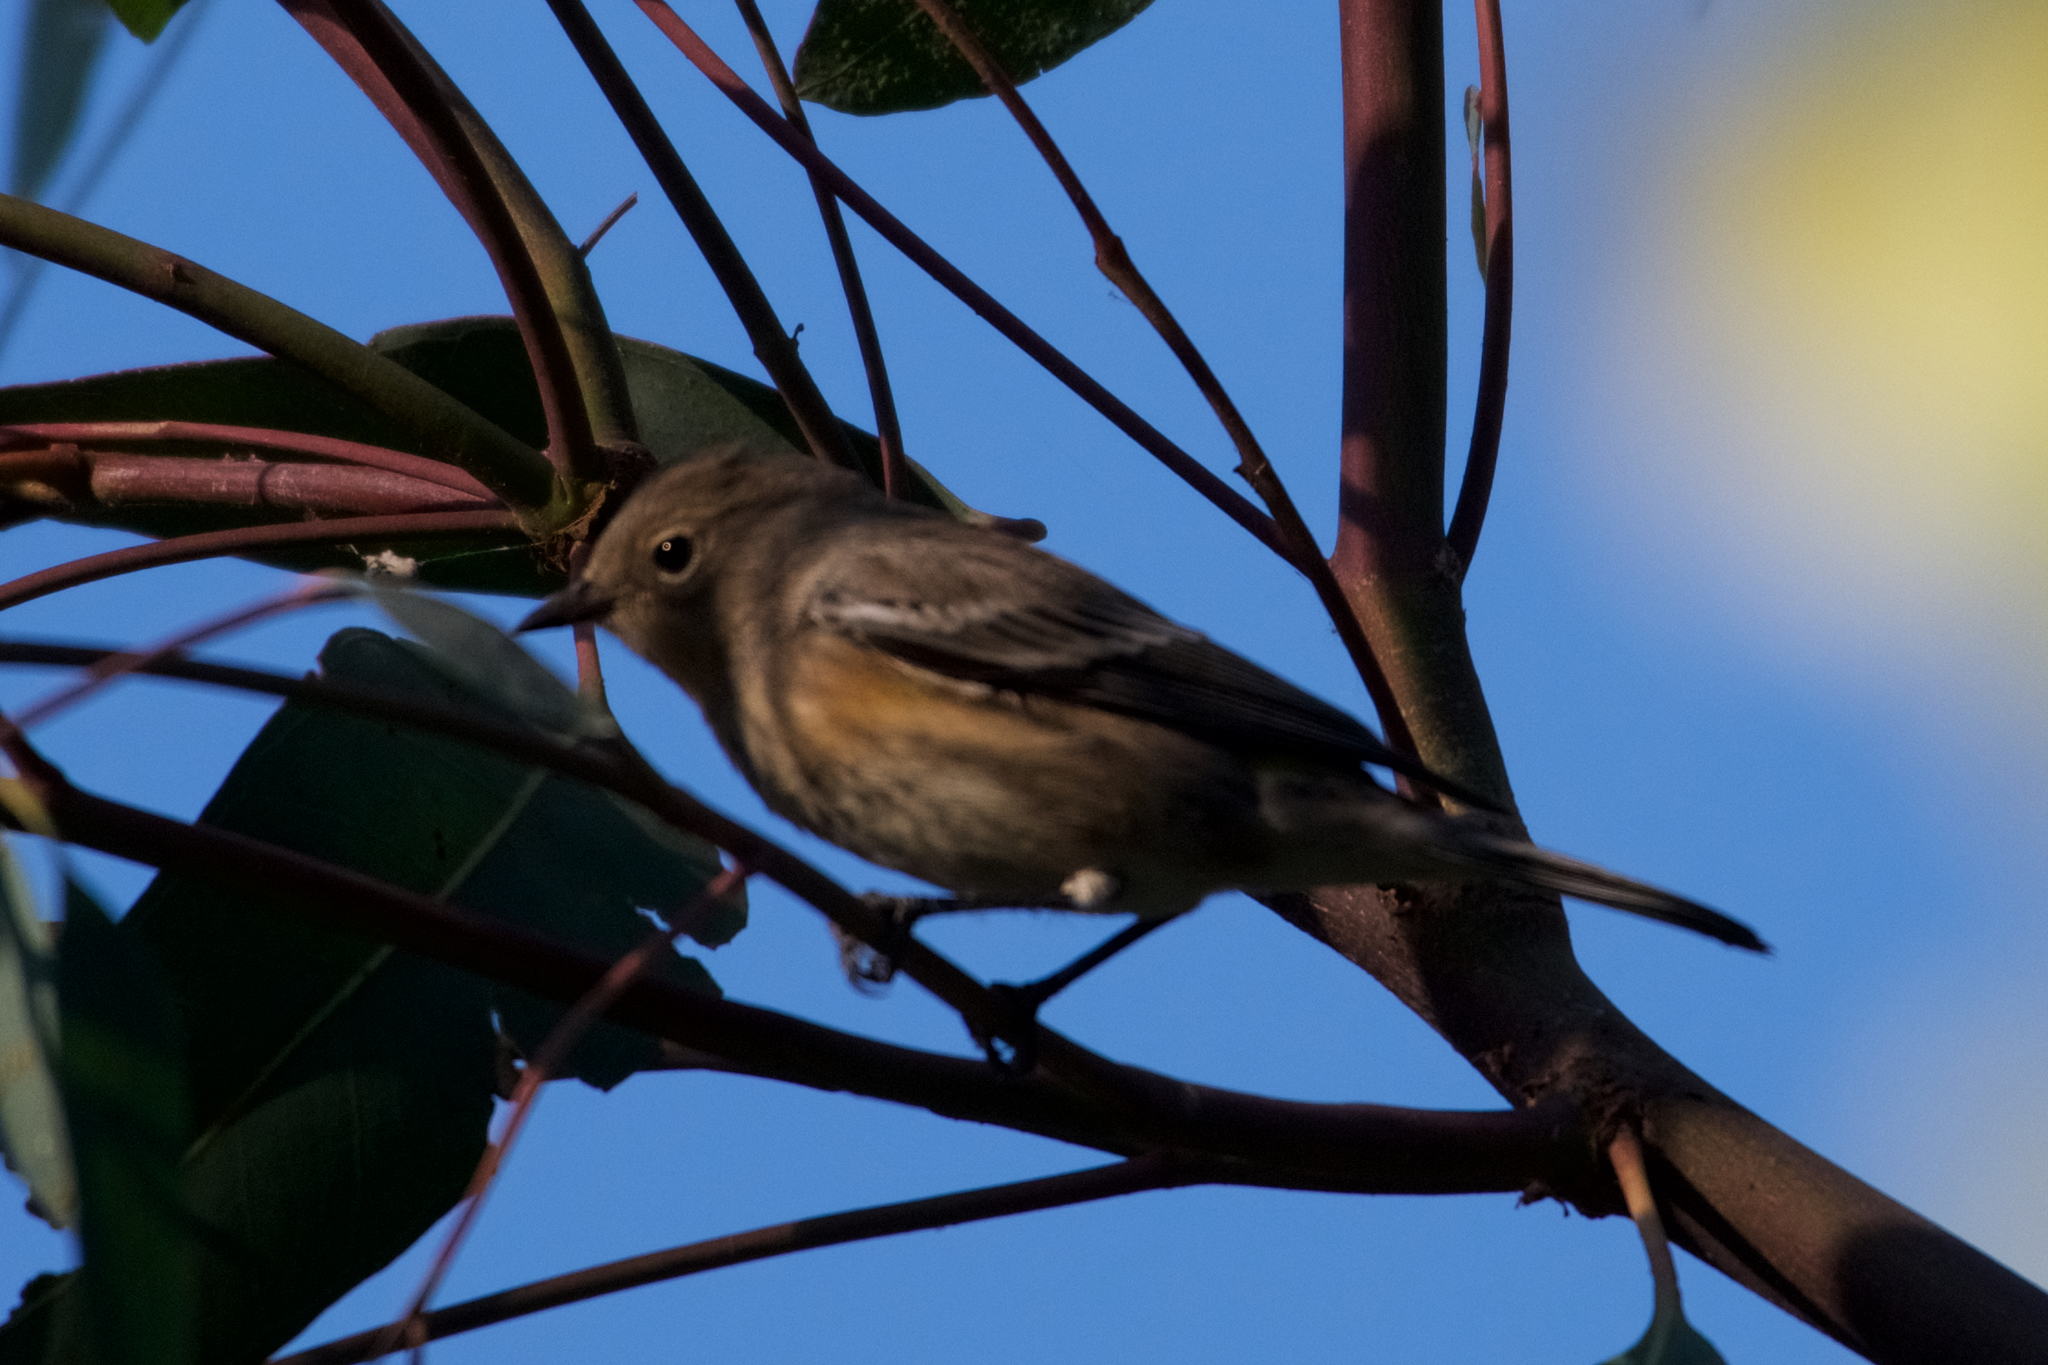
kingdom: Animalia
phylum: Chordata
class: Aves
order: Passeriformes
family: Parulidae
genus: Setophaga
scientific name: Setophaga coronata
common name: Myrtle warbler
